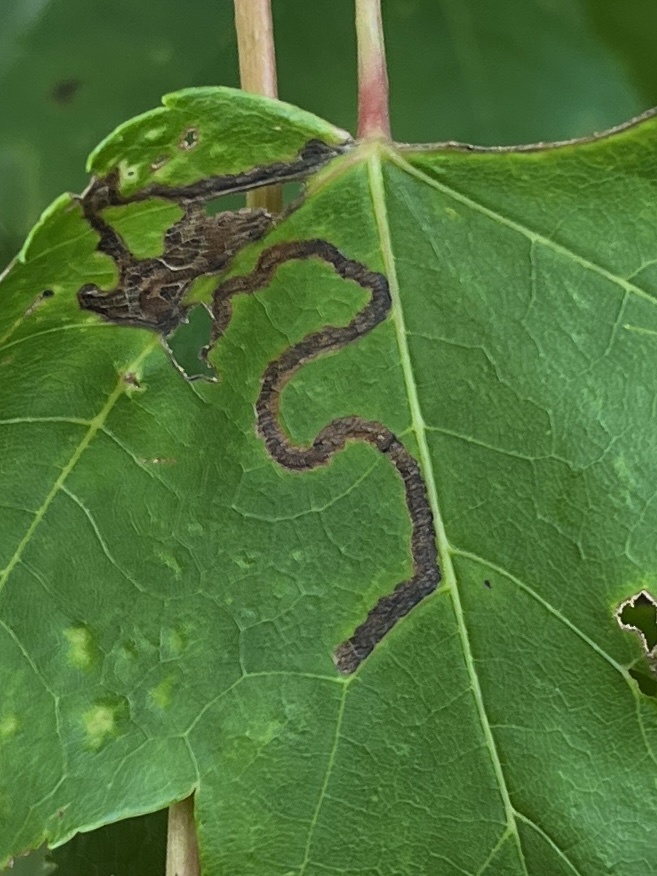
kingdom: Animalia
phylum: Arthropoda
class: Insecta
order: Lepidoptera
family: Nepticulidae
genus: Glaucolepis
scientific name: Glaucolepis saccharella
